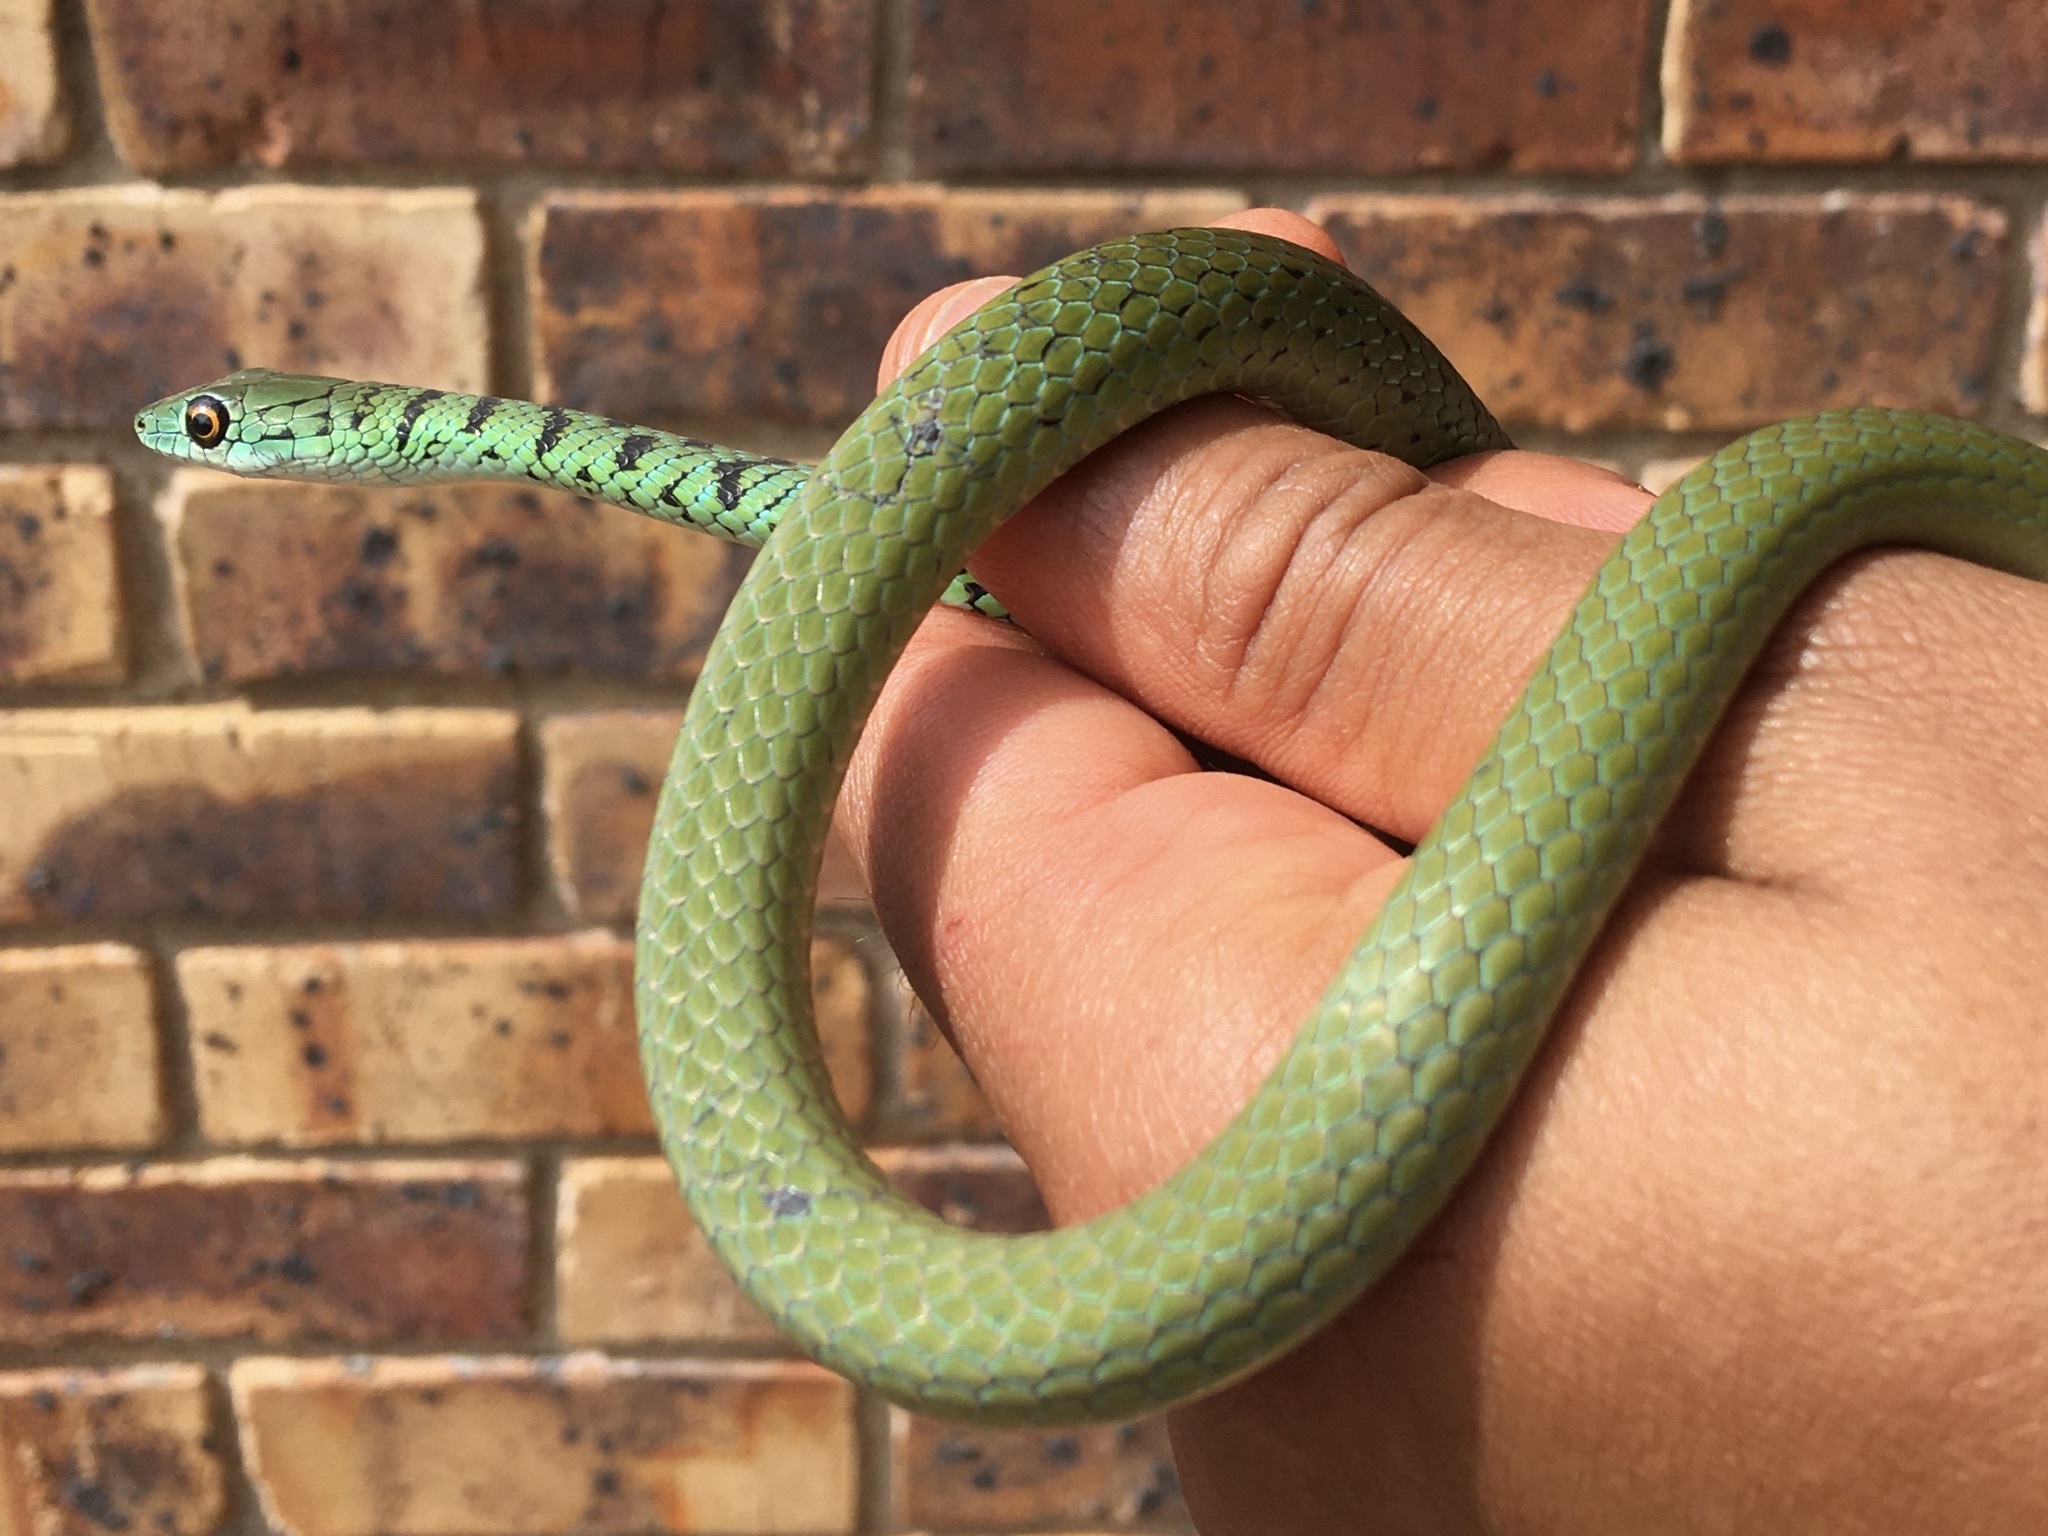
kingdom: Animalia
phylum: Chordata
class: Squamata
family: Colubridae
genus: Philothamnus
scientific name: Philothamnus semivariegatus
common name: Spotted bush snake
